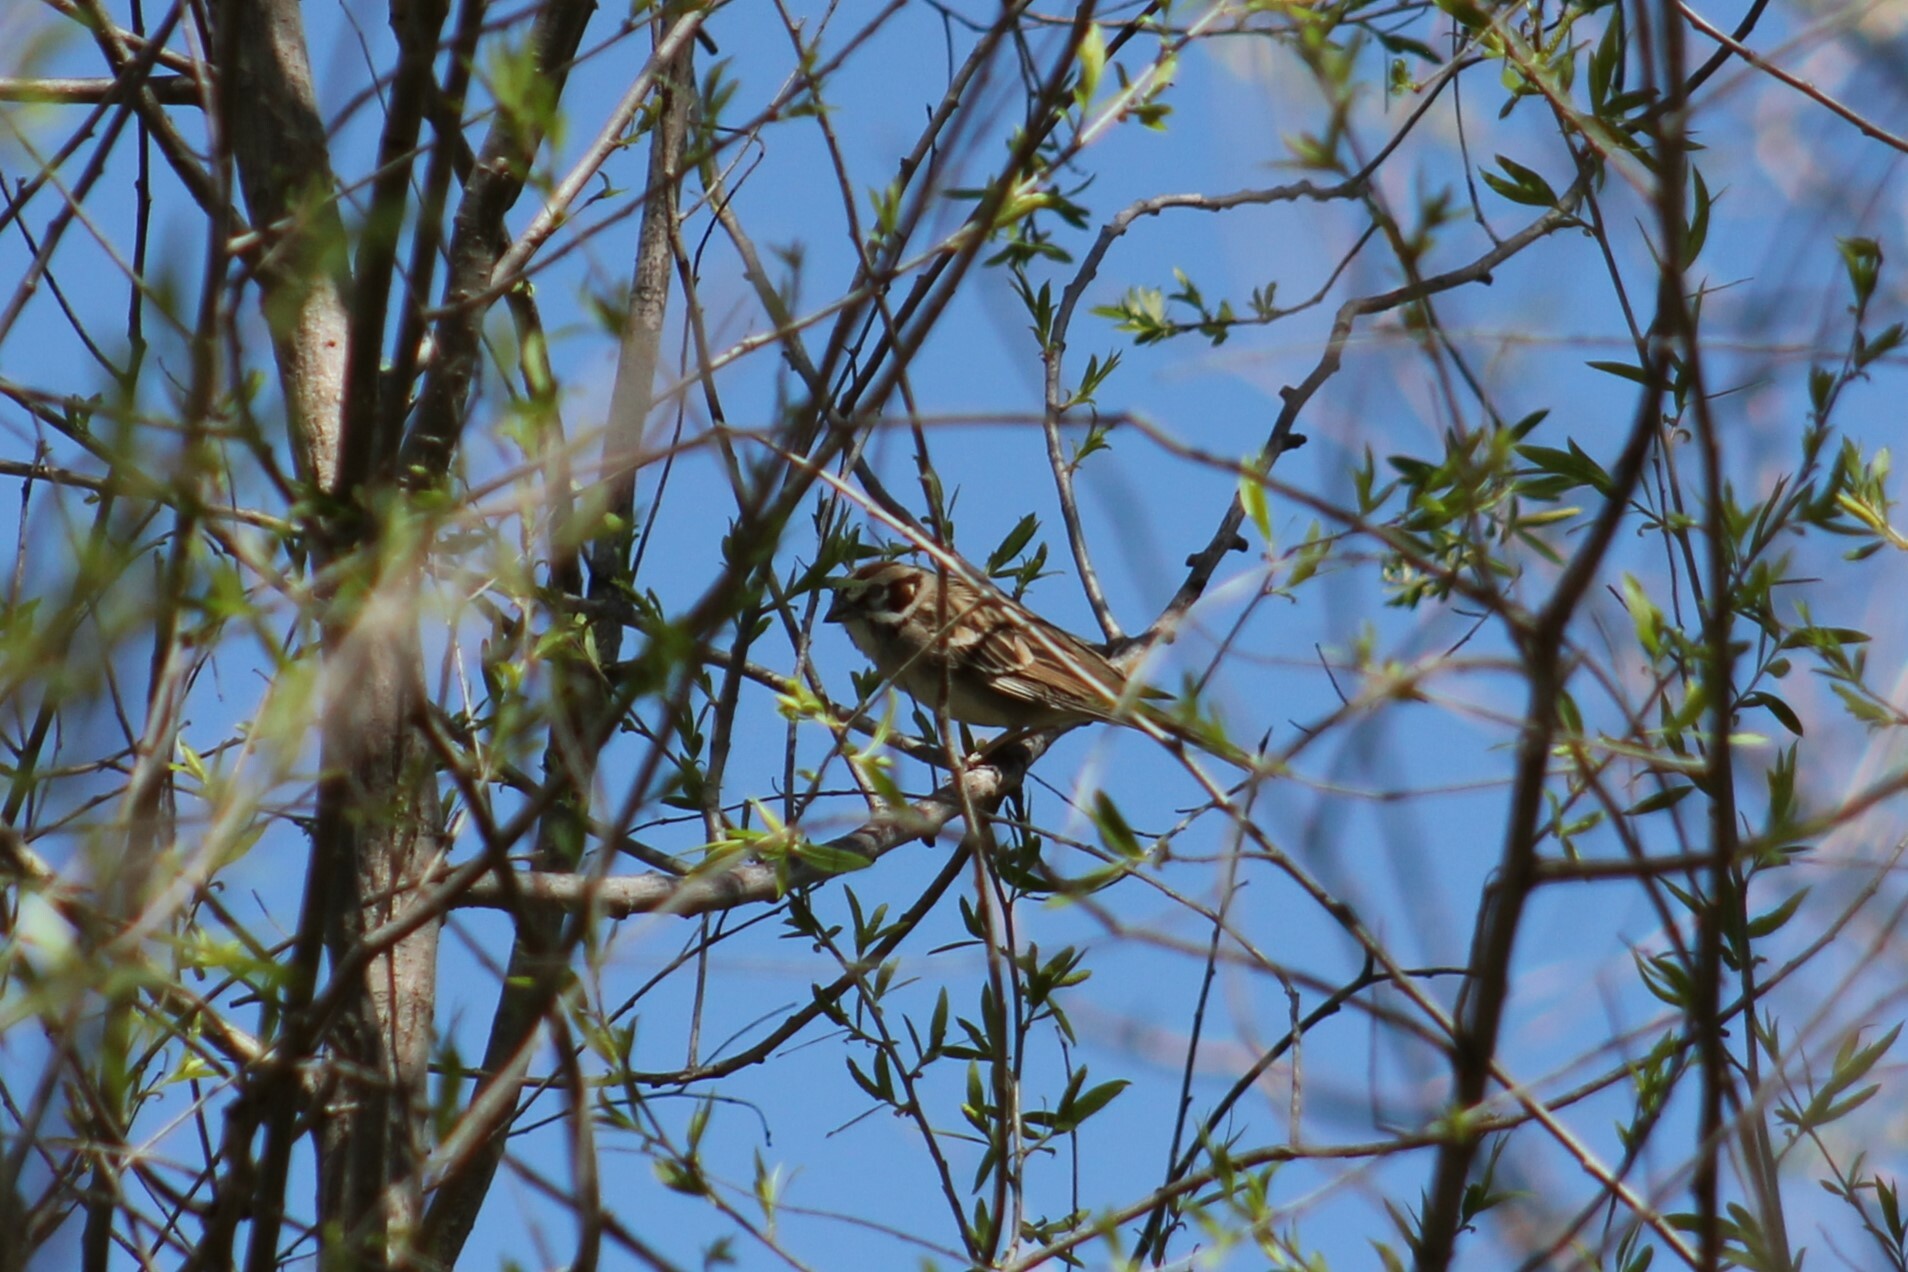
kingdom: Animalia
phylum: Chordata
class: Aves
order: Passeriformes
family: Passerellidae
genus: Chondestes
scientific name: Chondestes grammacus
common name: Lark sparrow
